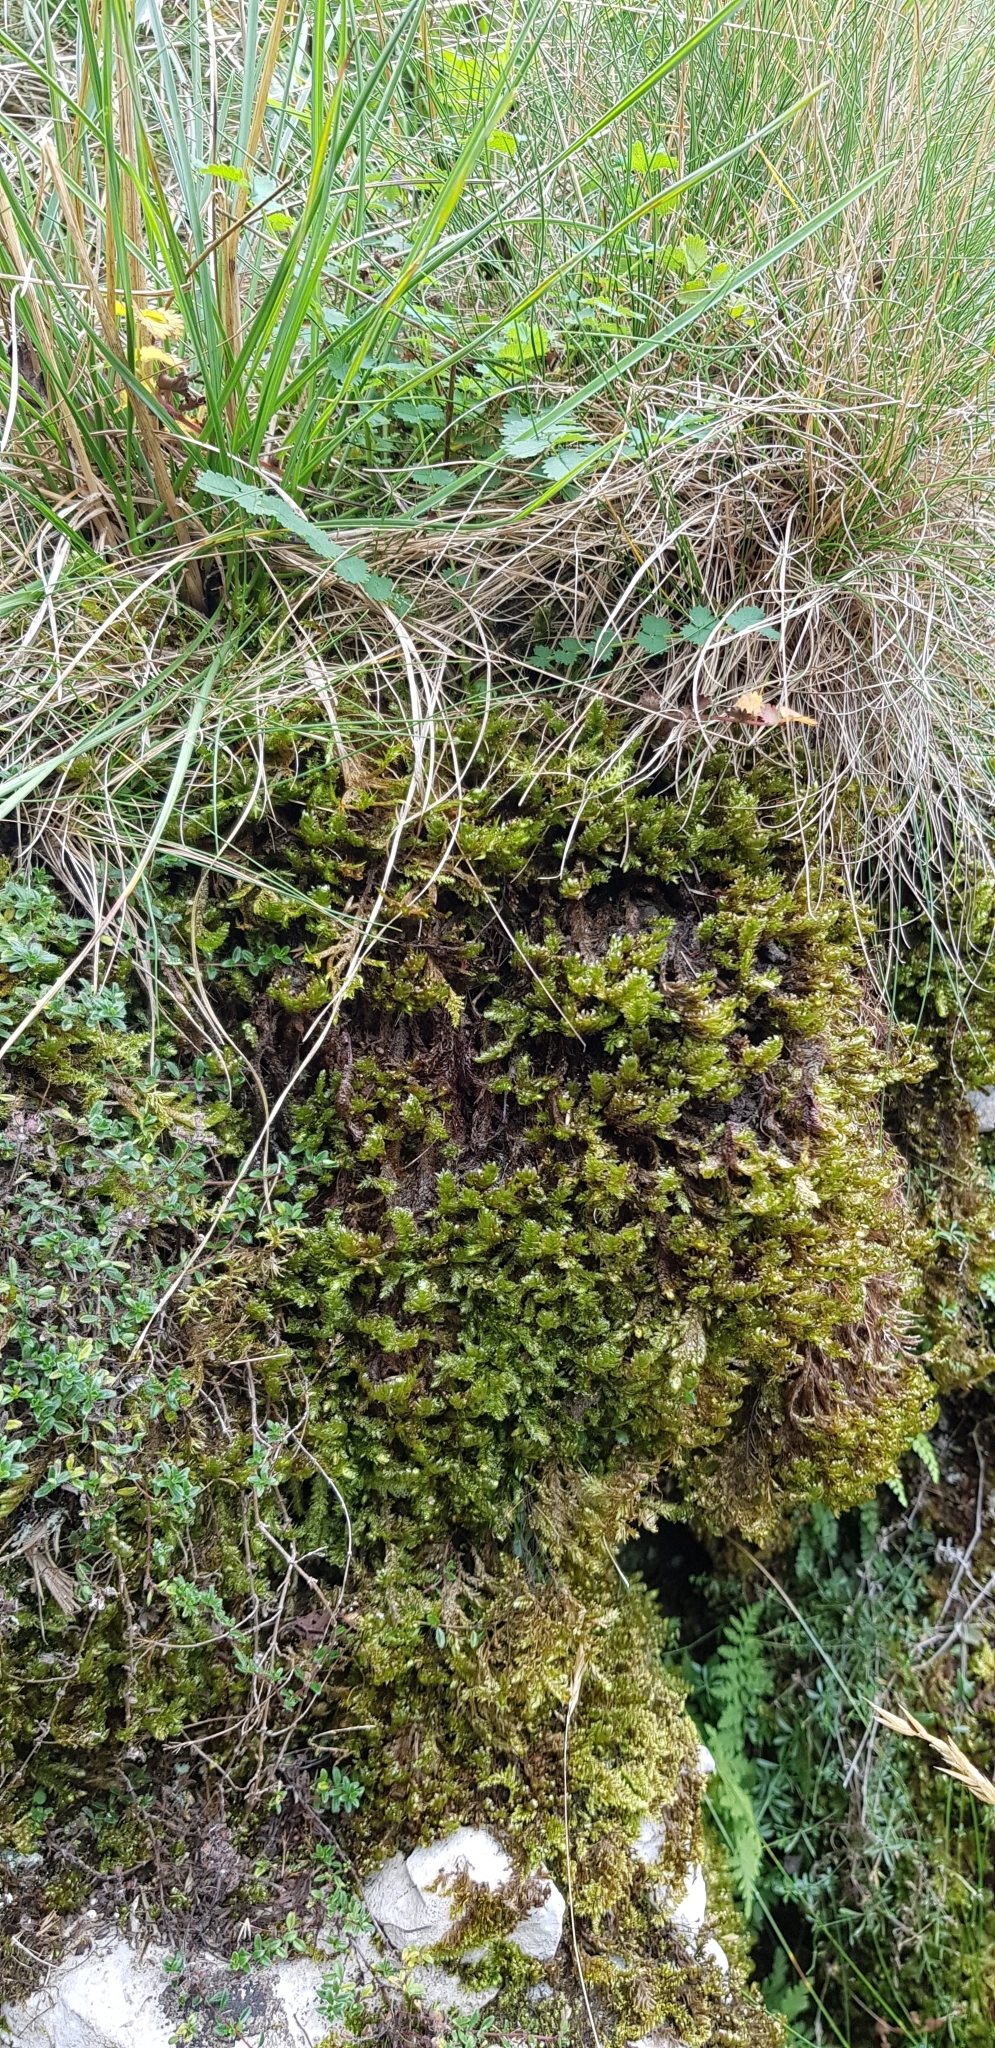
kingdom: Plantae
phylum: Bryophyta
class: Bryopsida
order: Hypnales
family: Neckeraceae
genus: Exsertotheca
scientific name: Exsertotheca crispa
